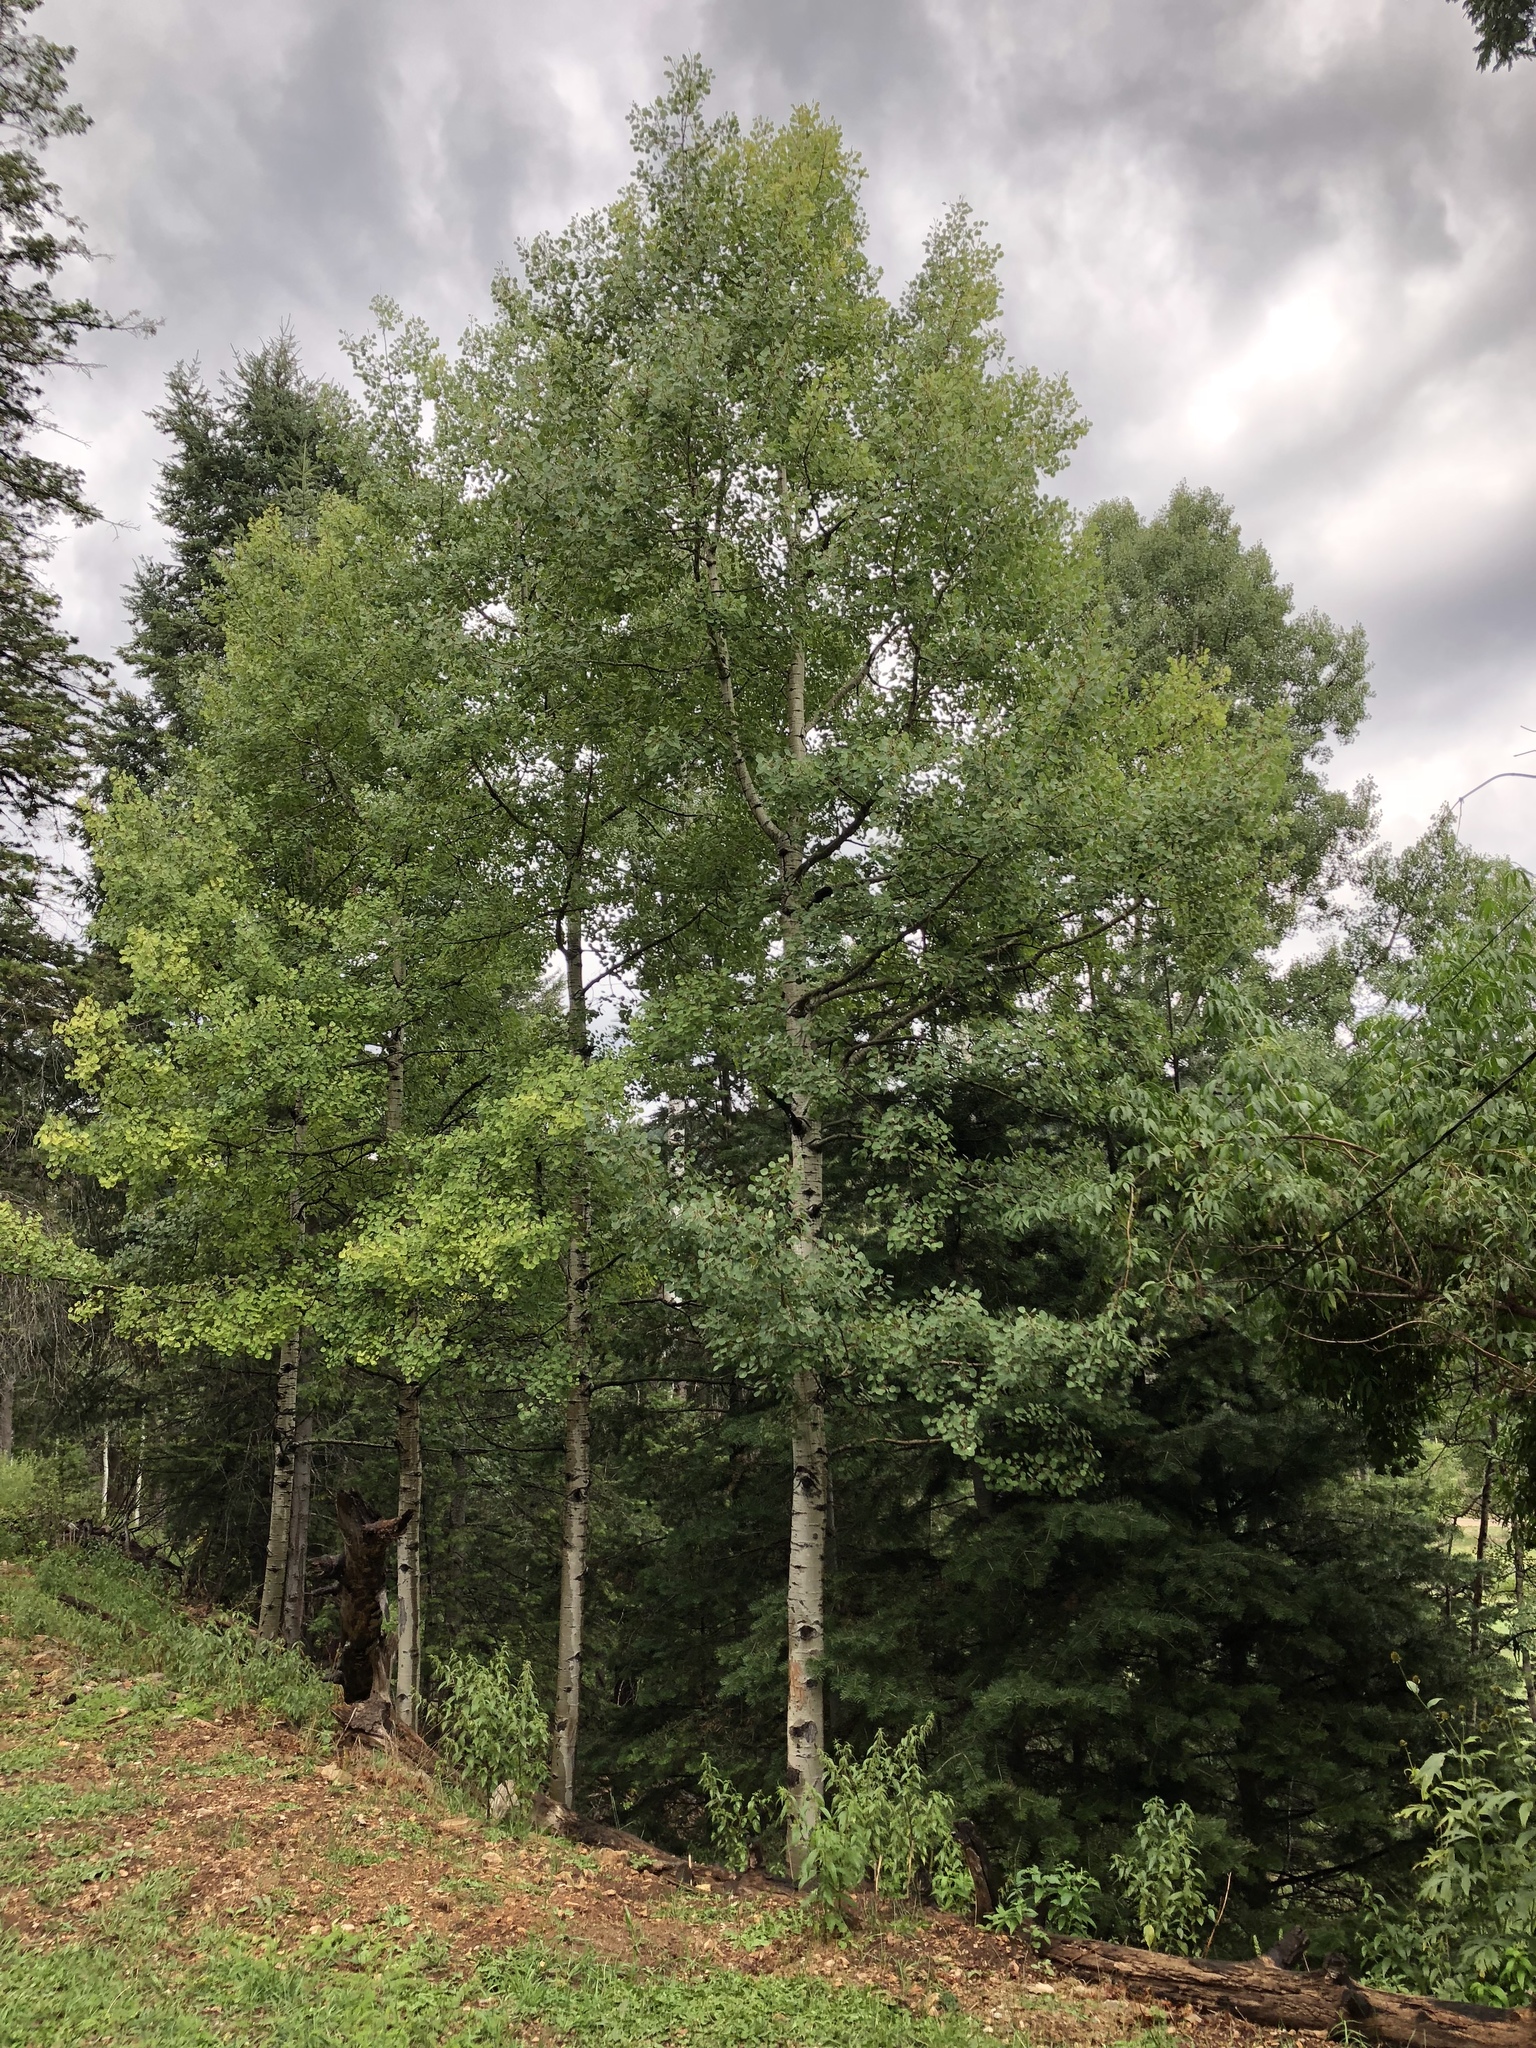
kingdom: Plantae
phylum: Tracheophyta
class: Magnoliopsida
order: Malpighiales
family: Salicaceae
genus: Populus
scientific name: Populus tremuloides
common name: Quaking aspen
